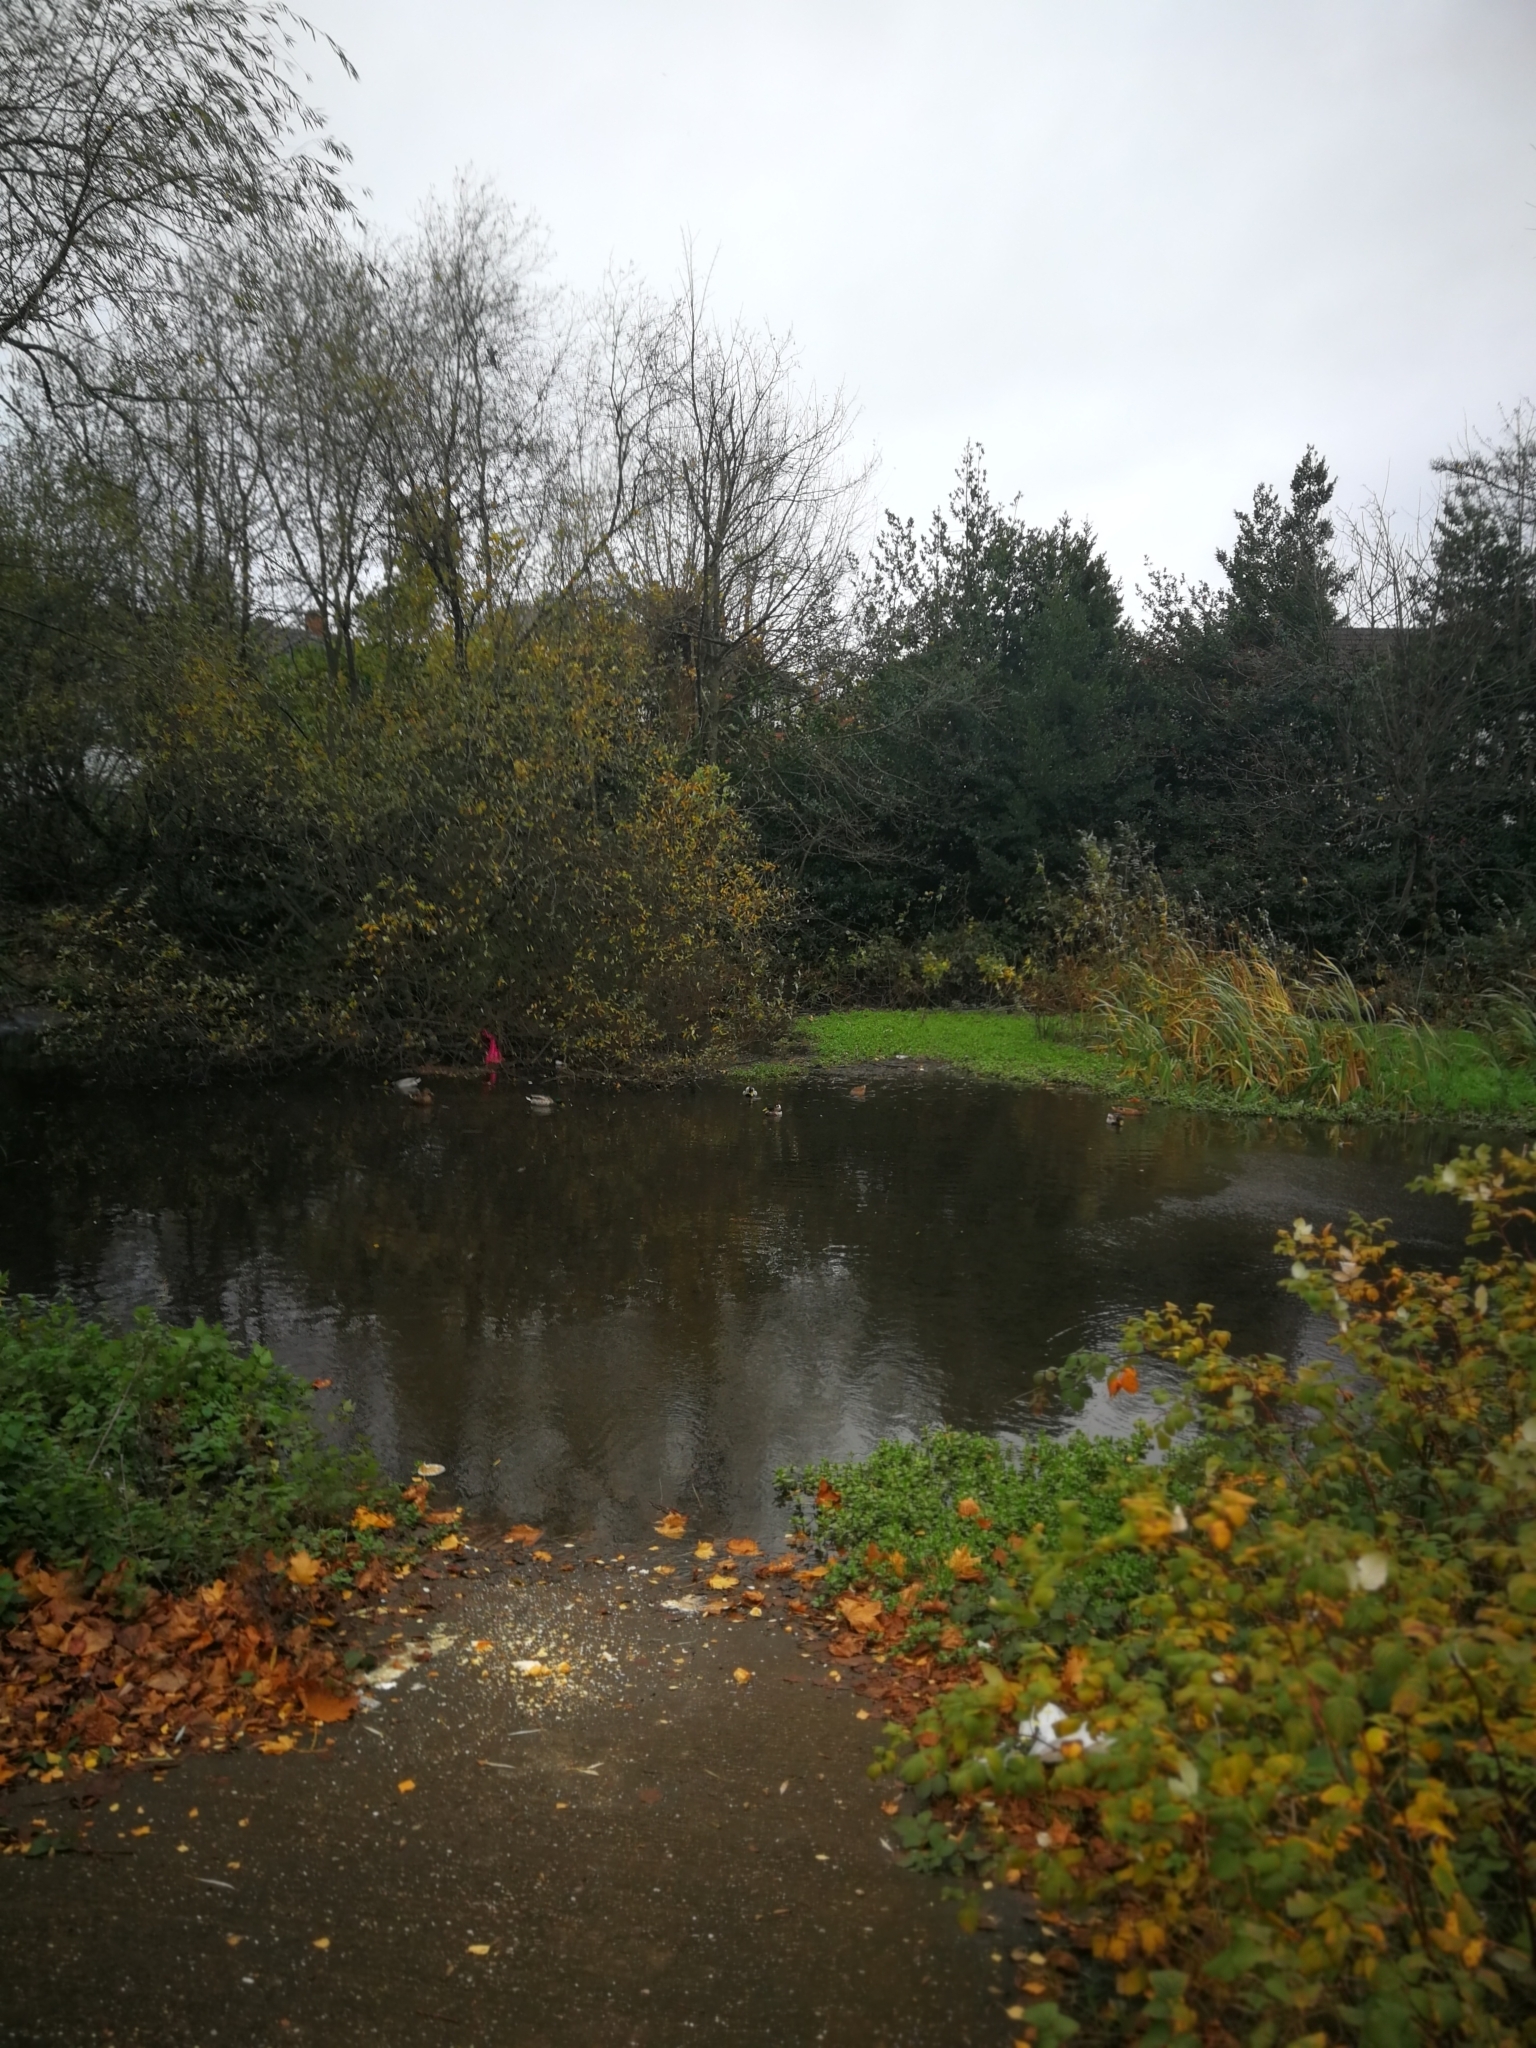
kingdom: Animalia
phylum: Chordata
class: Aves
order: Anseriformes
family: Anatidae
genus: Anas
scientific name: Anas platyrhynchos
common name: Mallard
